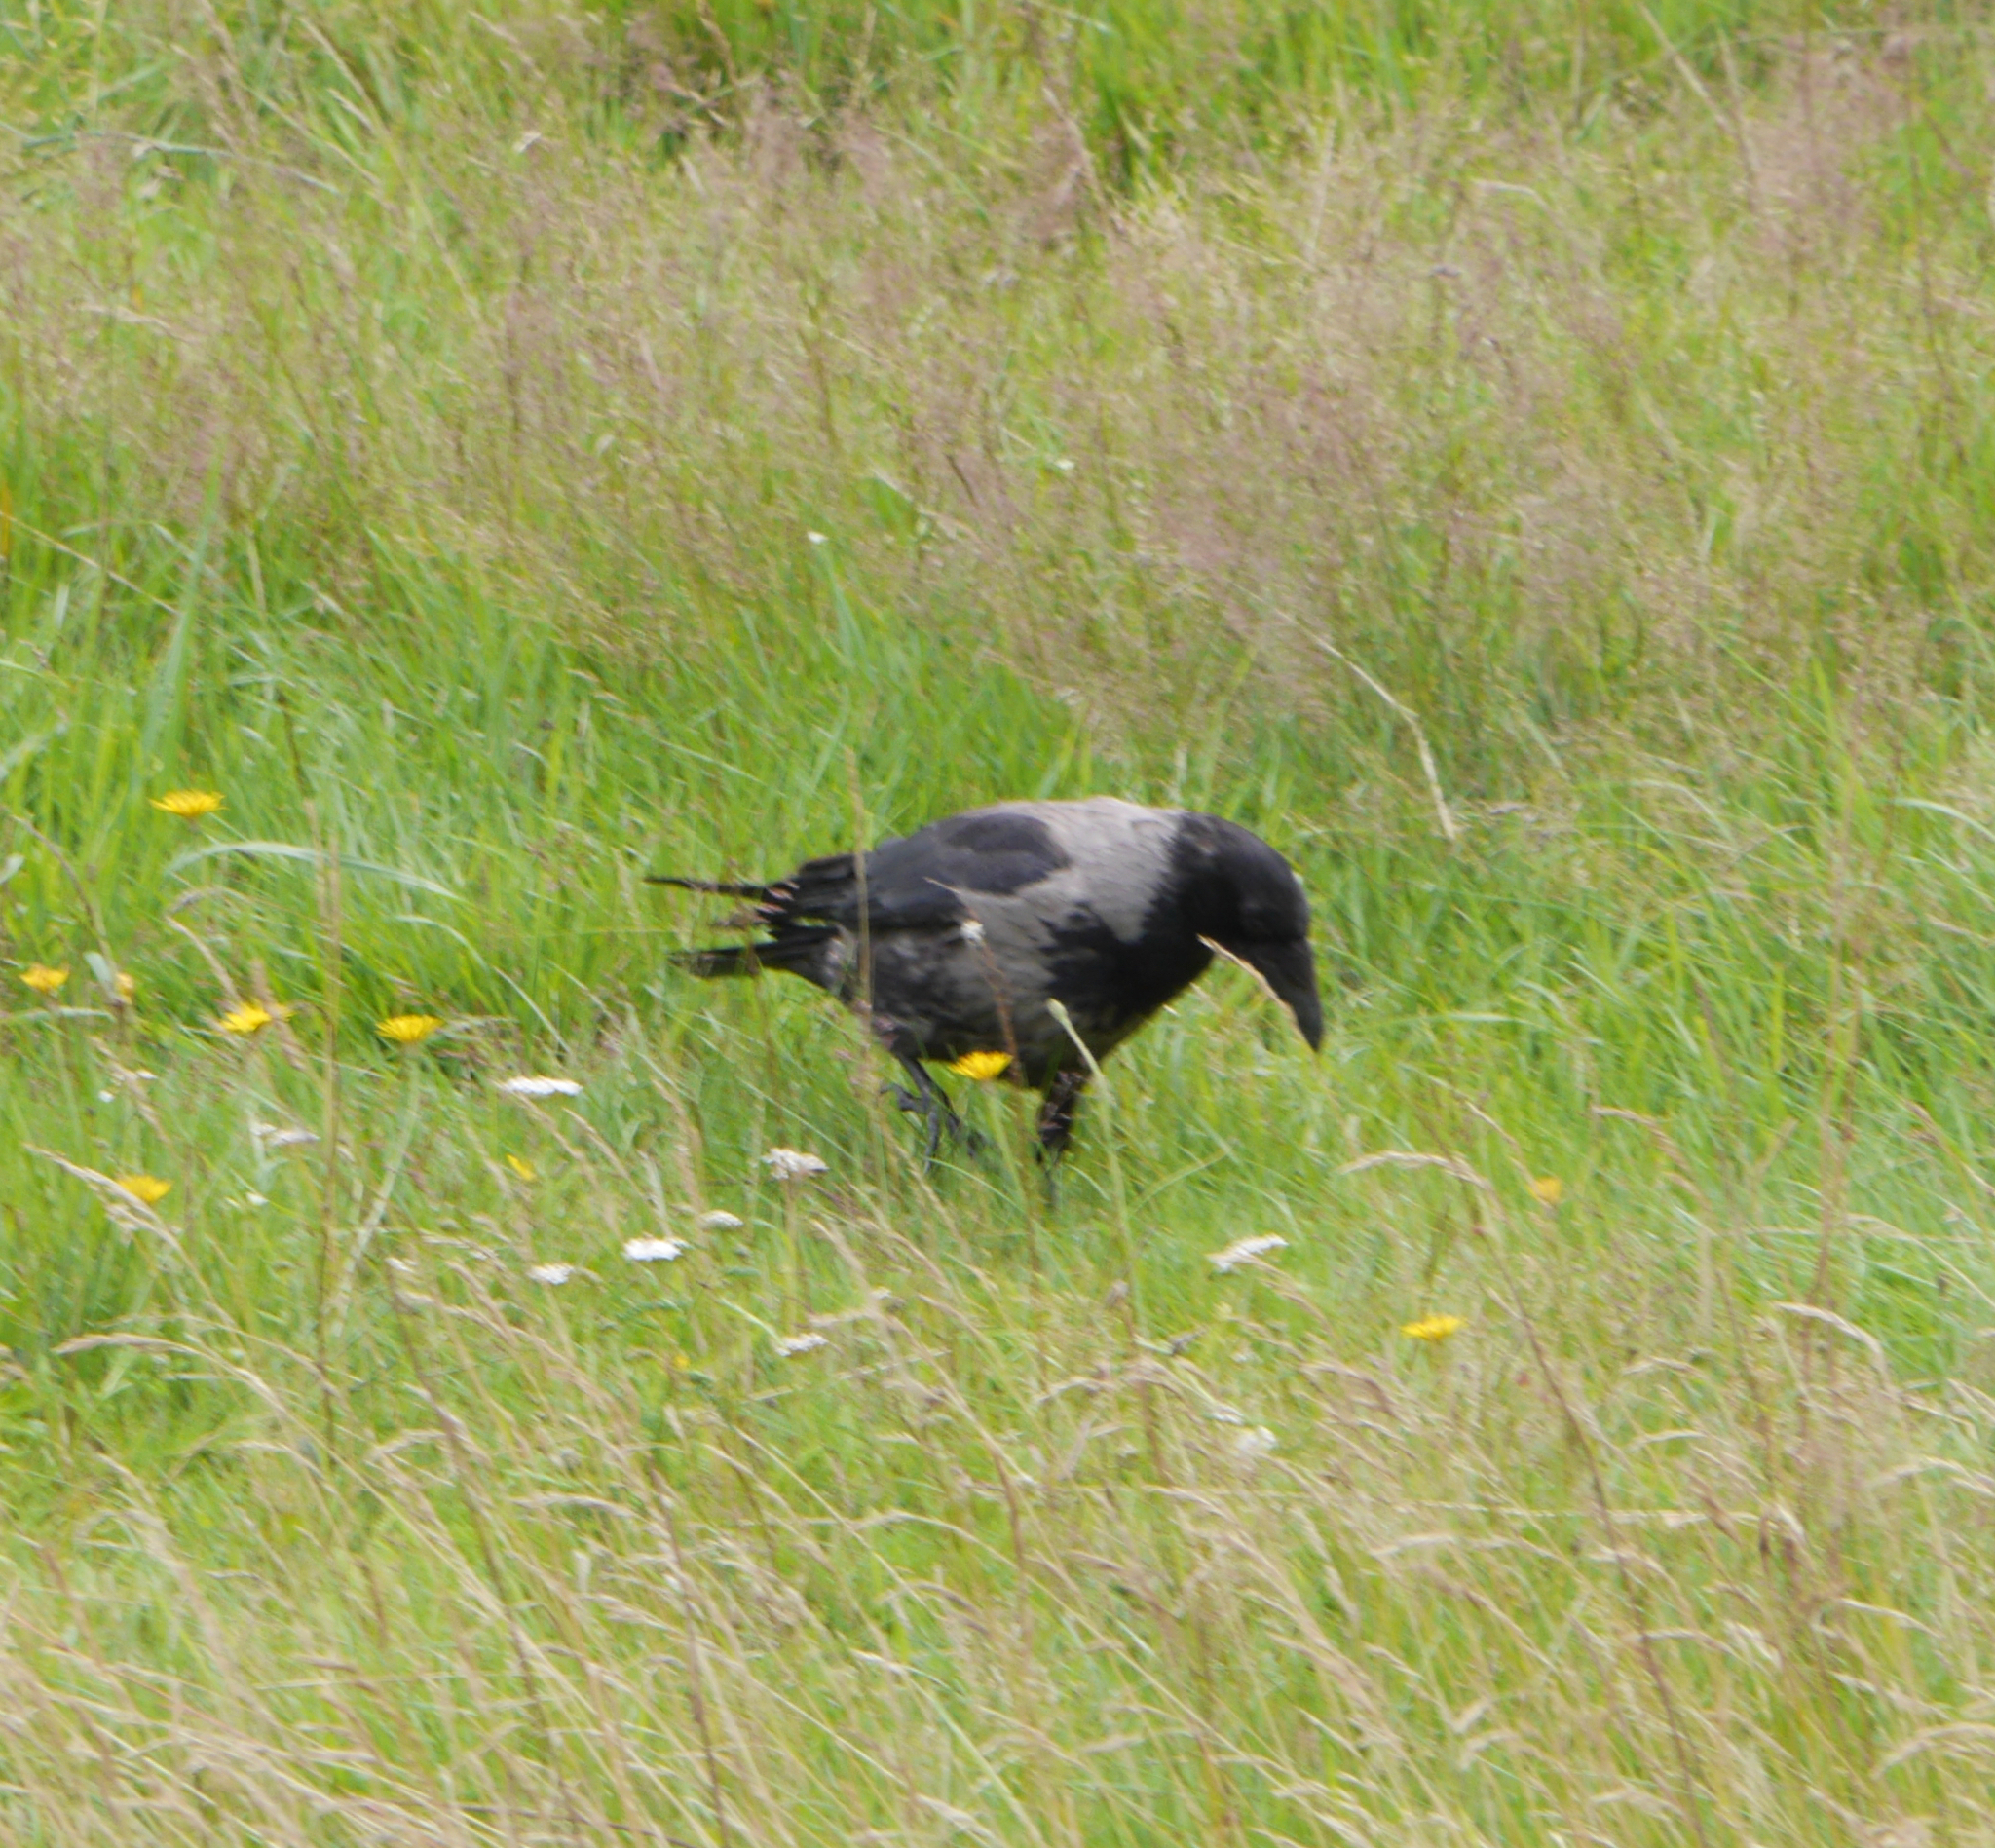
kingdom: Animalia
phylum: Chordata
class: Aves
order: Passeriformes
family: Corvidae
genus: Corvus
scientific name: Corvus
